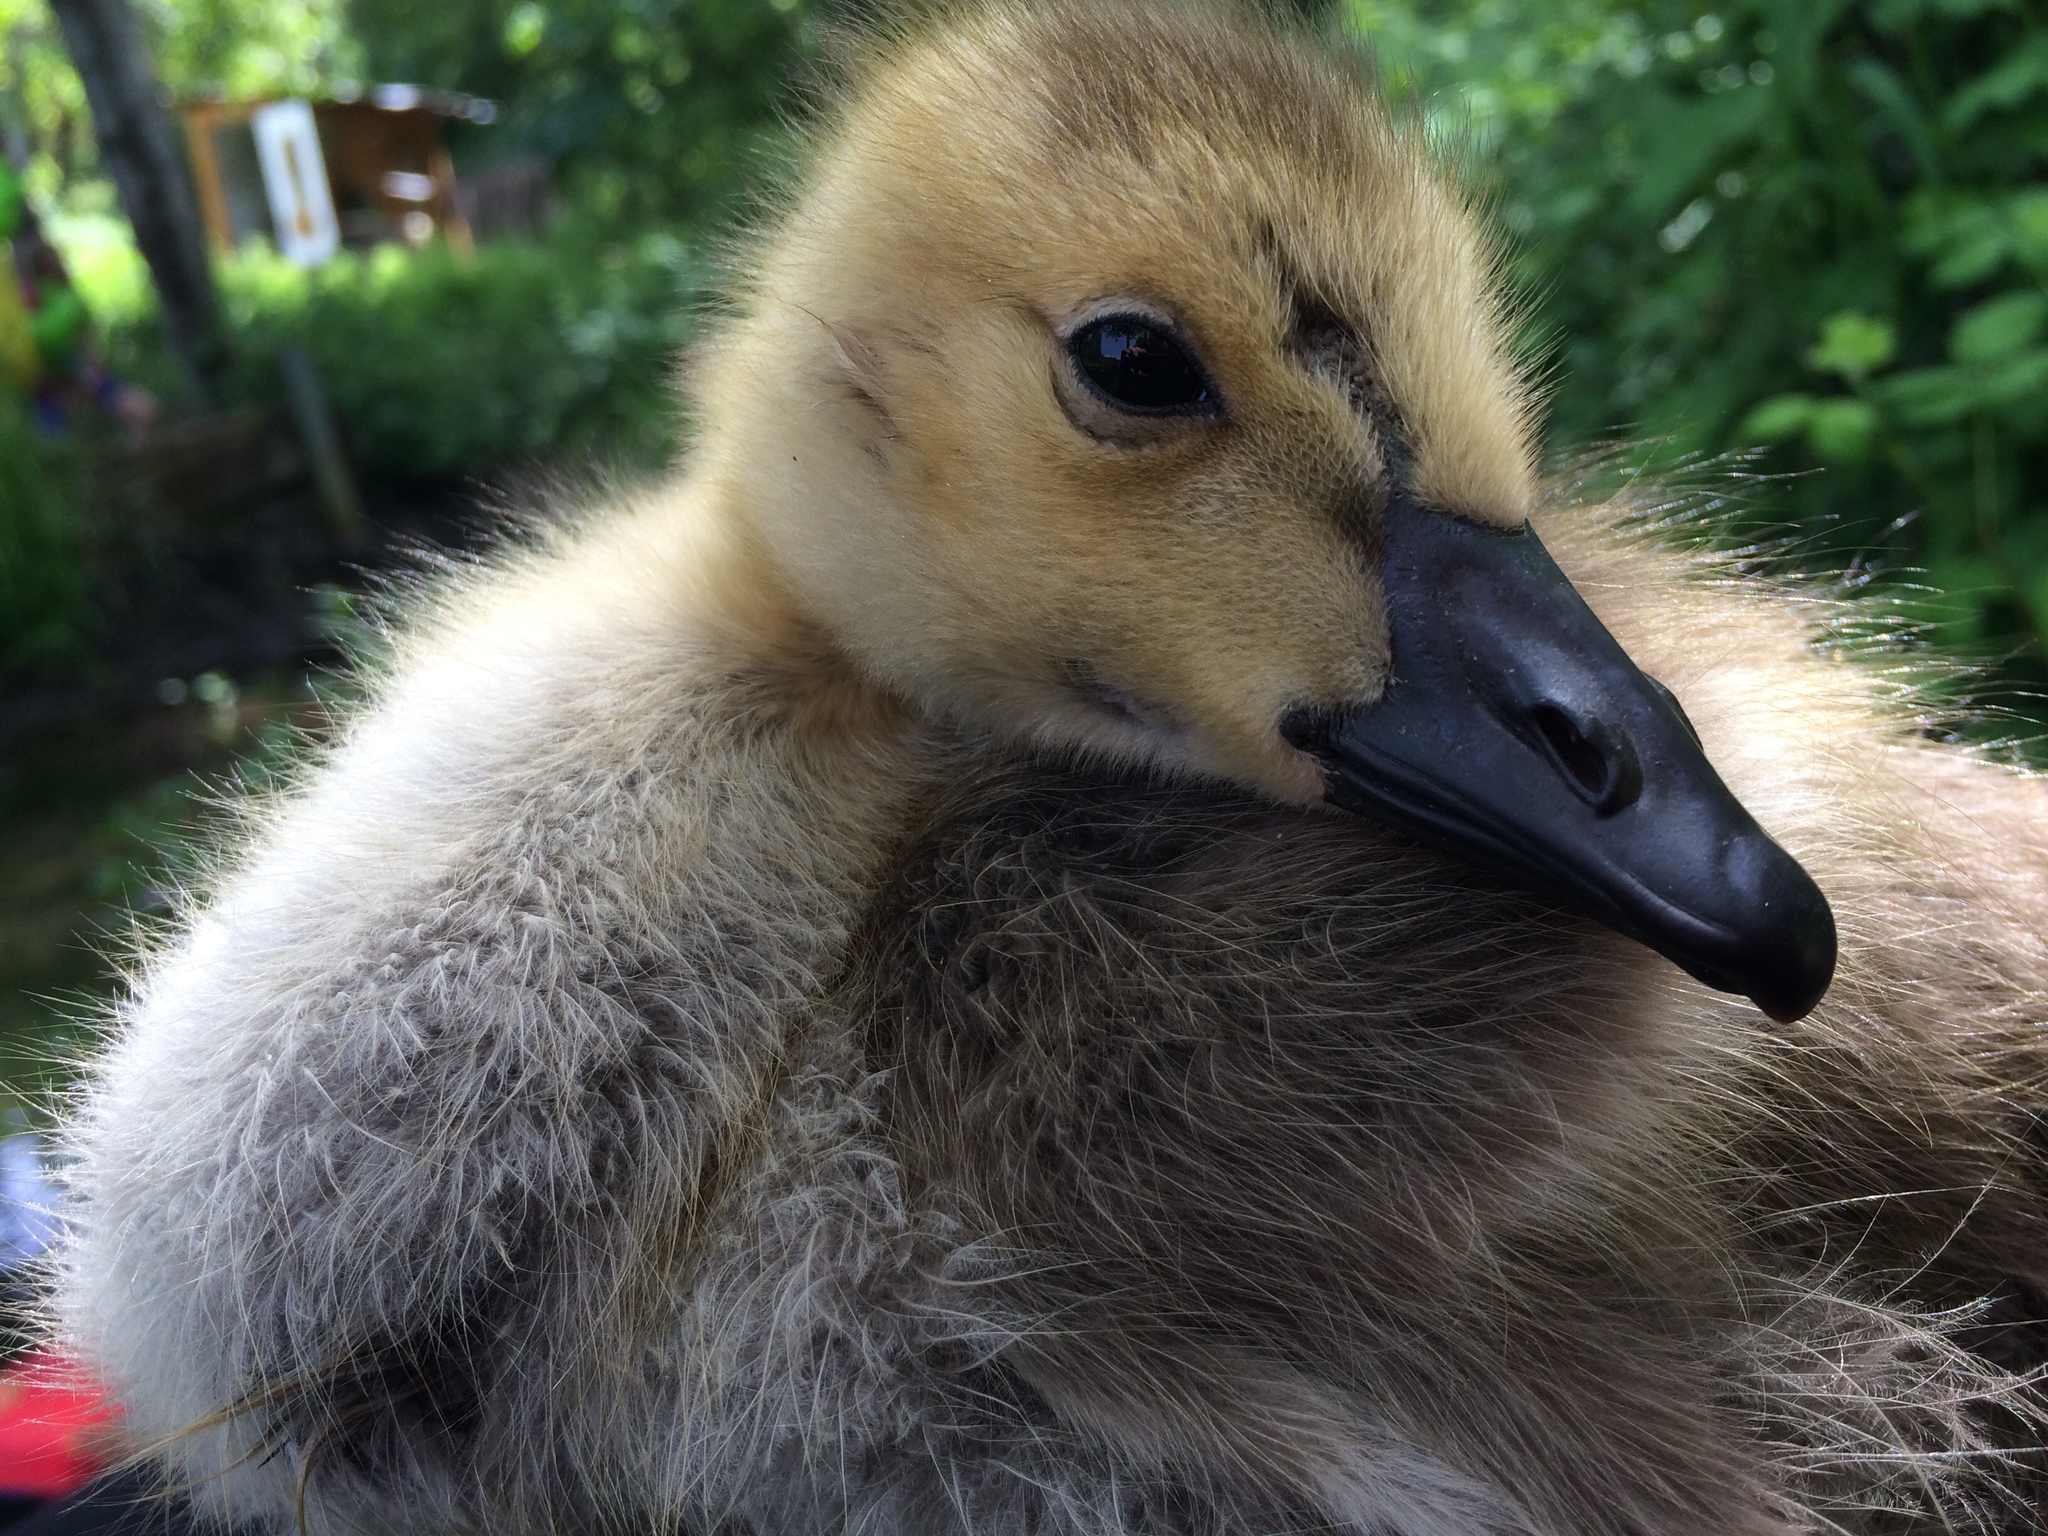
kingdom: Animalia
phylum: Chordata
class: Aves
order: Anseriformes
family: Anatidae
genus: Branta
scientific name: Branta canadensis
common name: Canada goose
